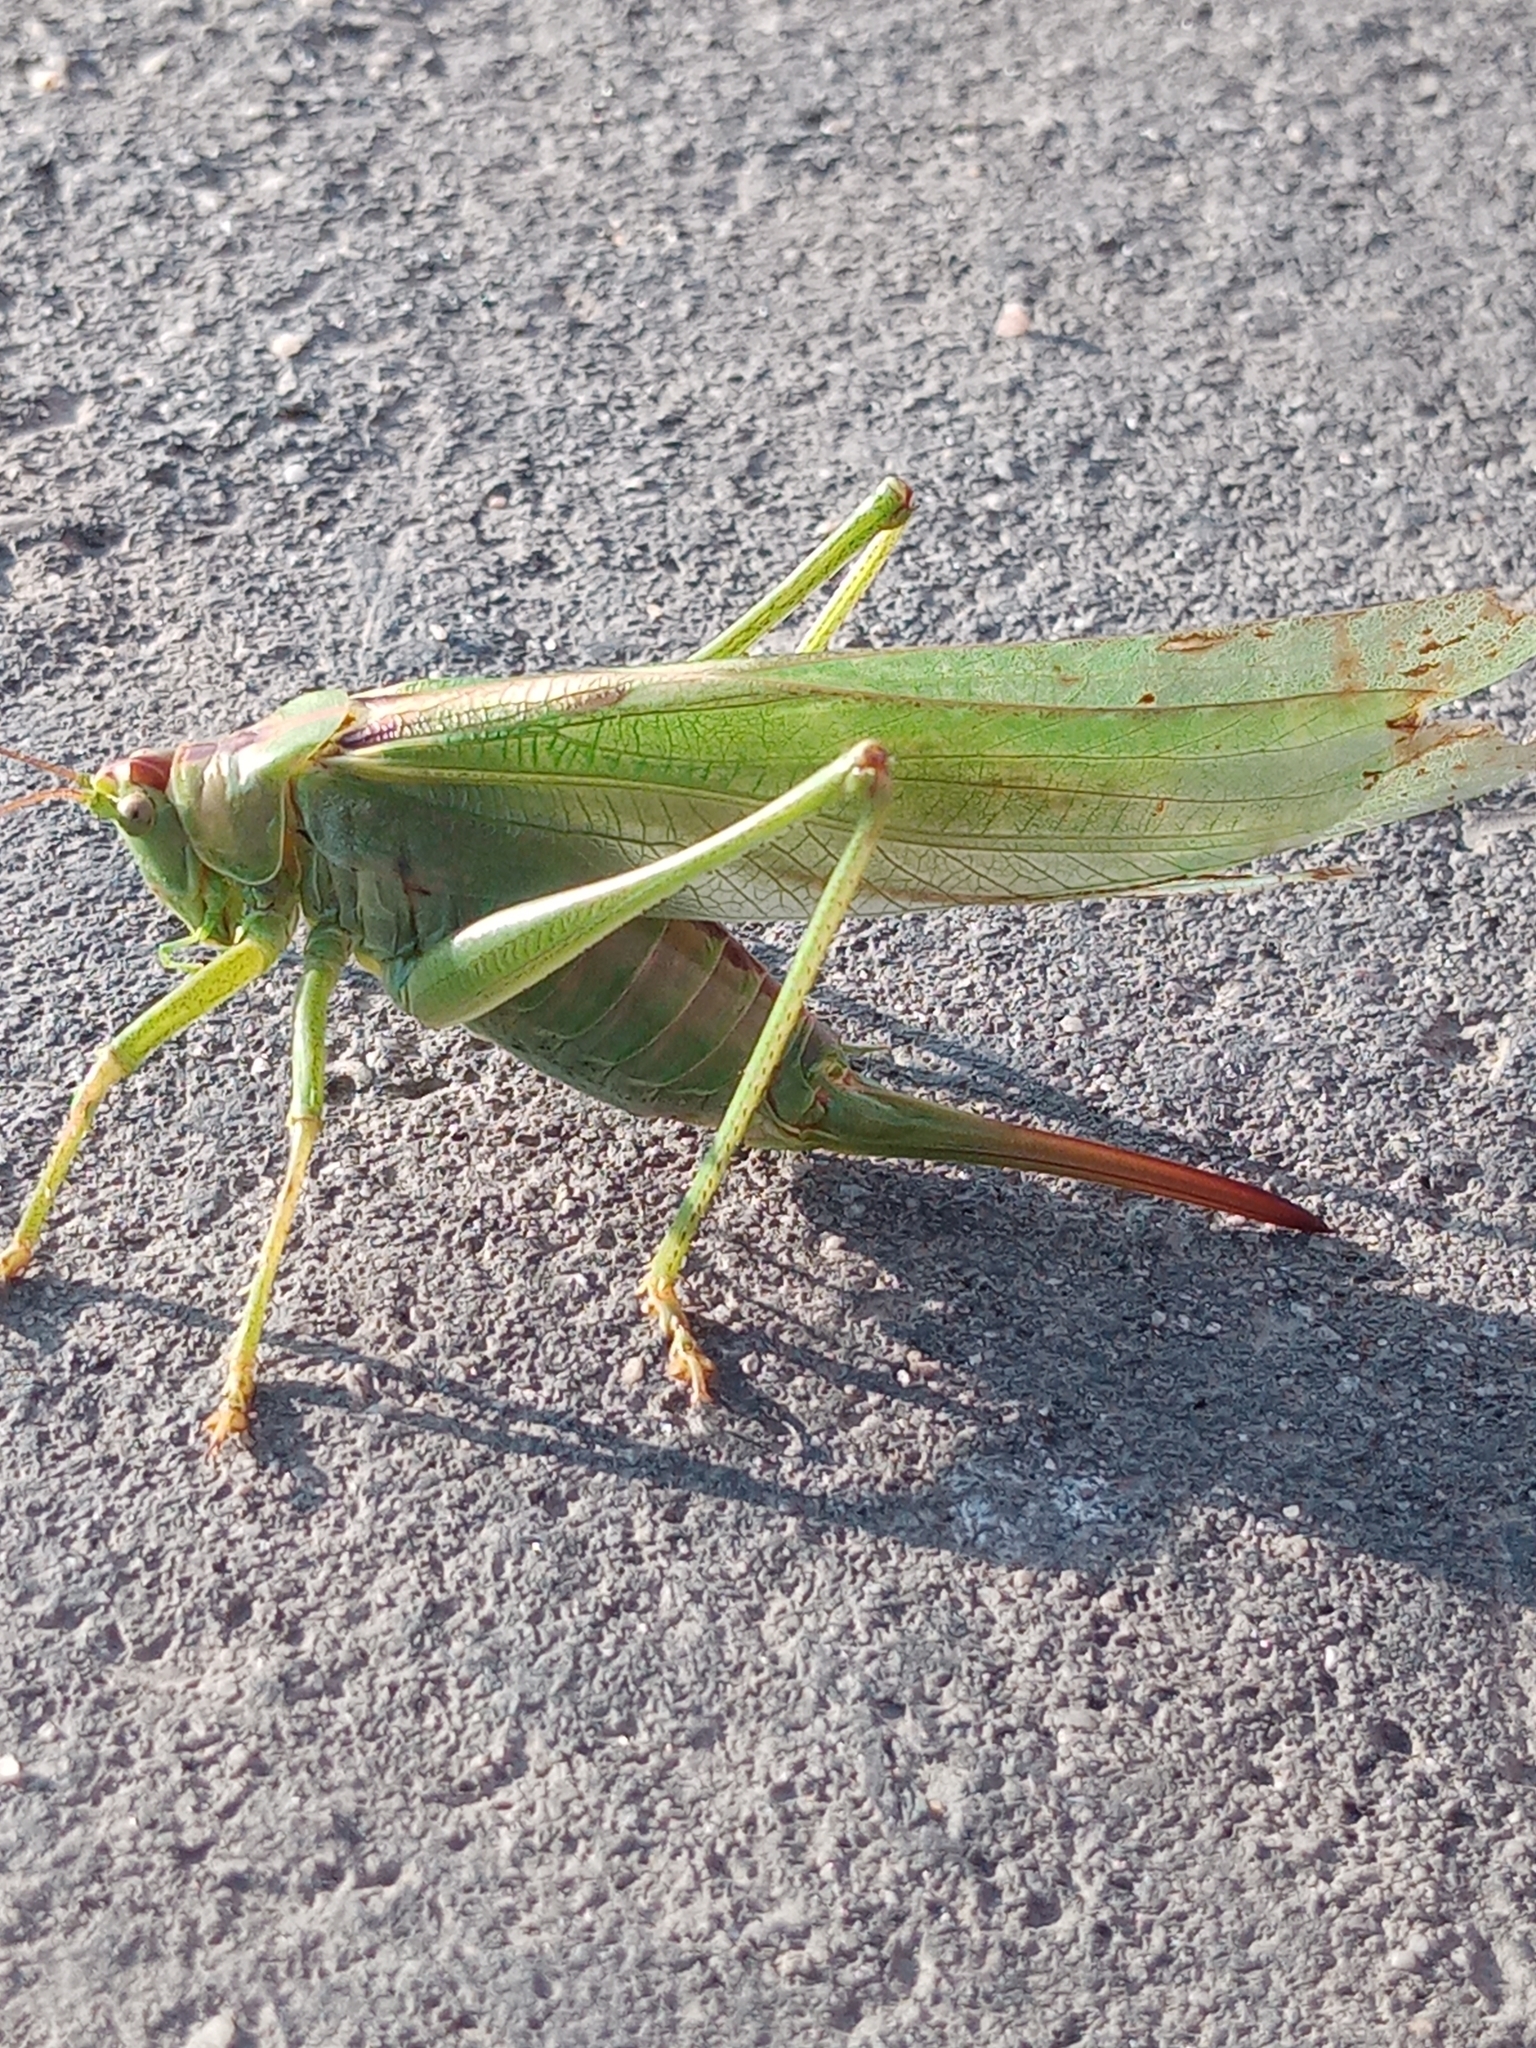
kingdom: Animalia
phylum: Arthropoda
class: Insecta
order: Orthoptera
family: Tettigoniidae
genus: Tettigonia
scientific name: Tettigonia viridissima
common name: Great green bush-cricket
